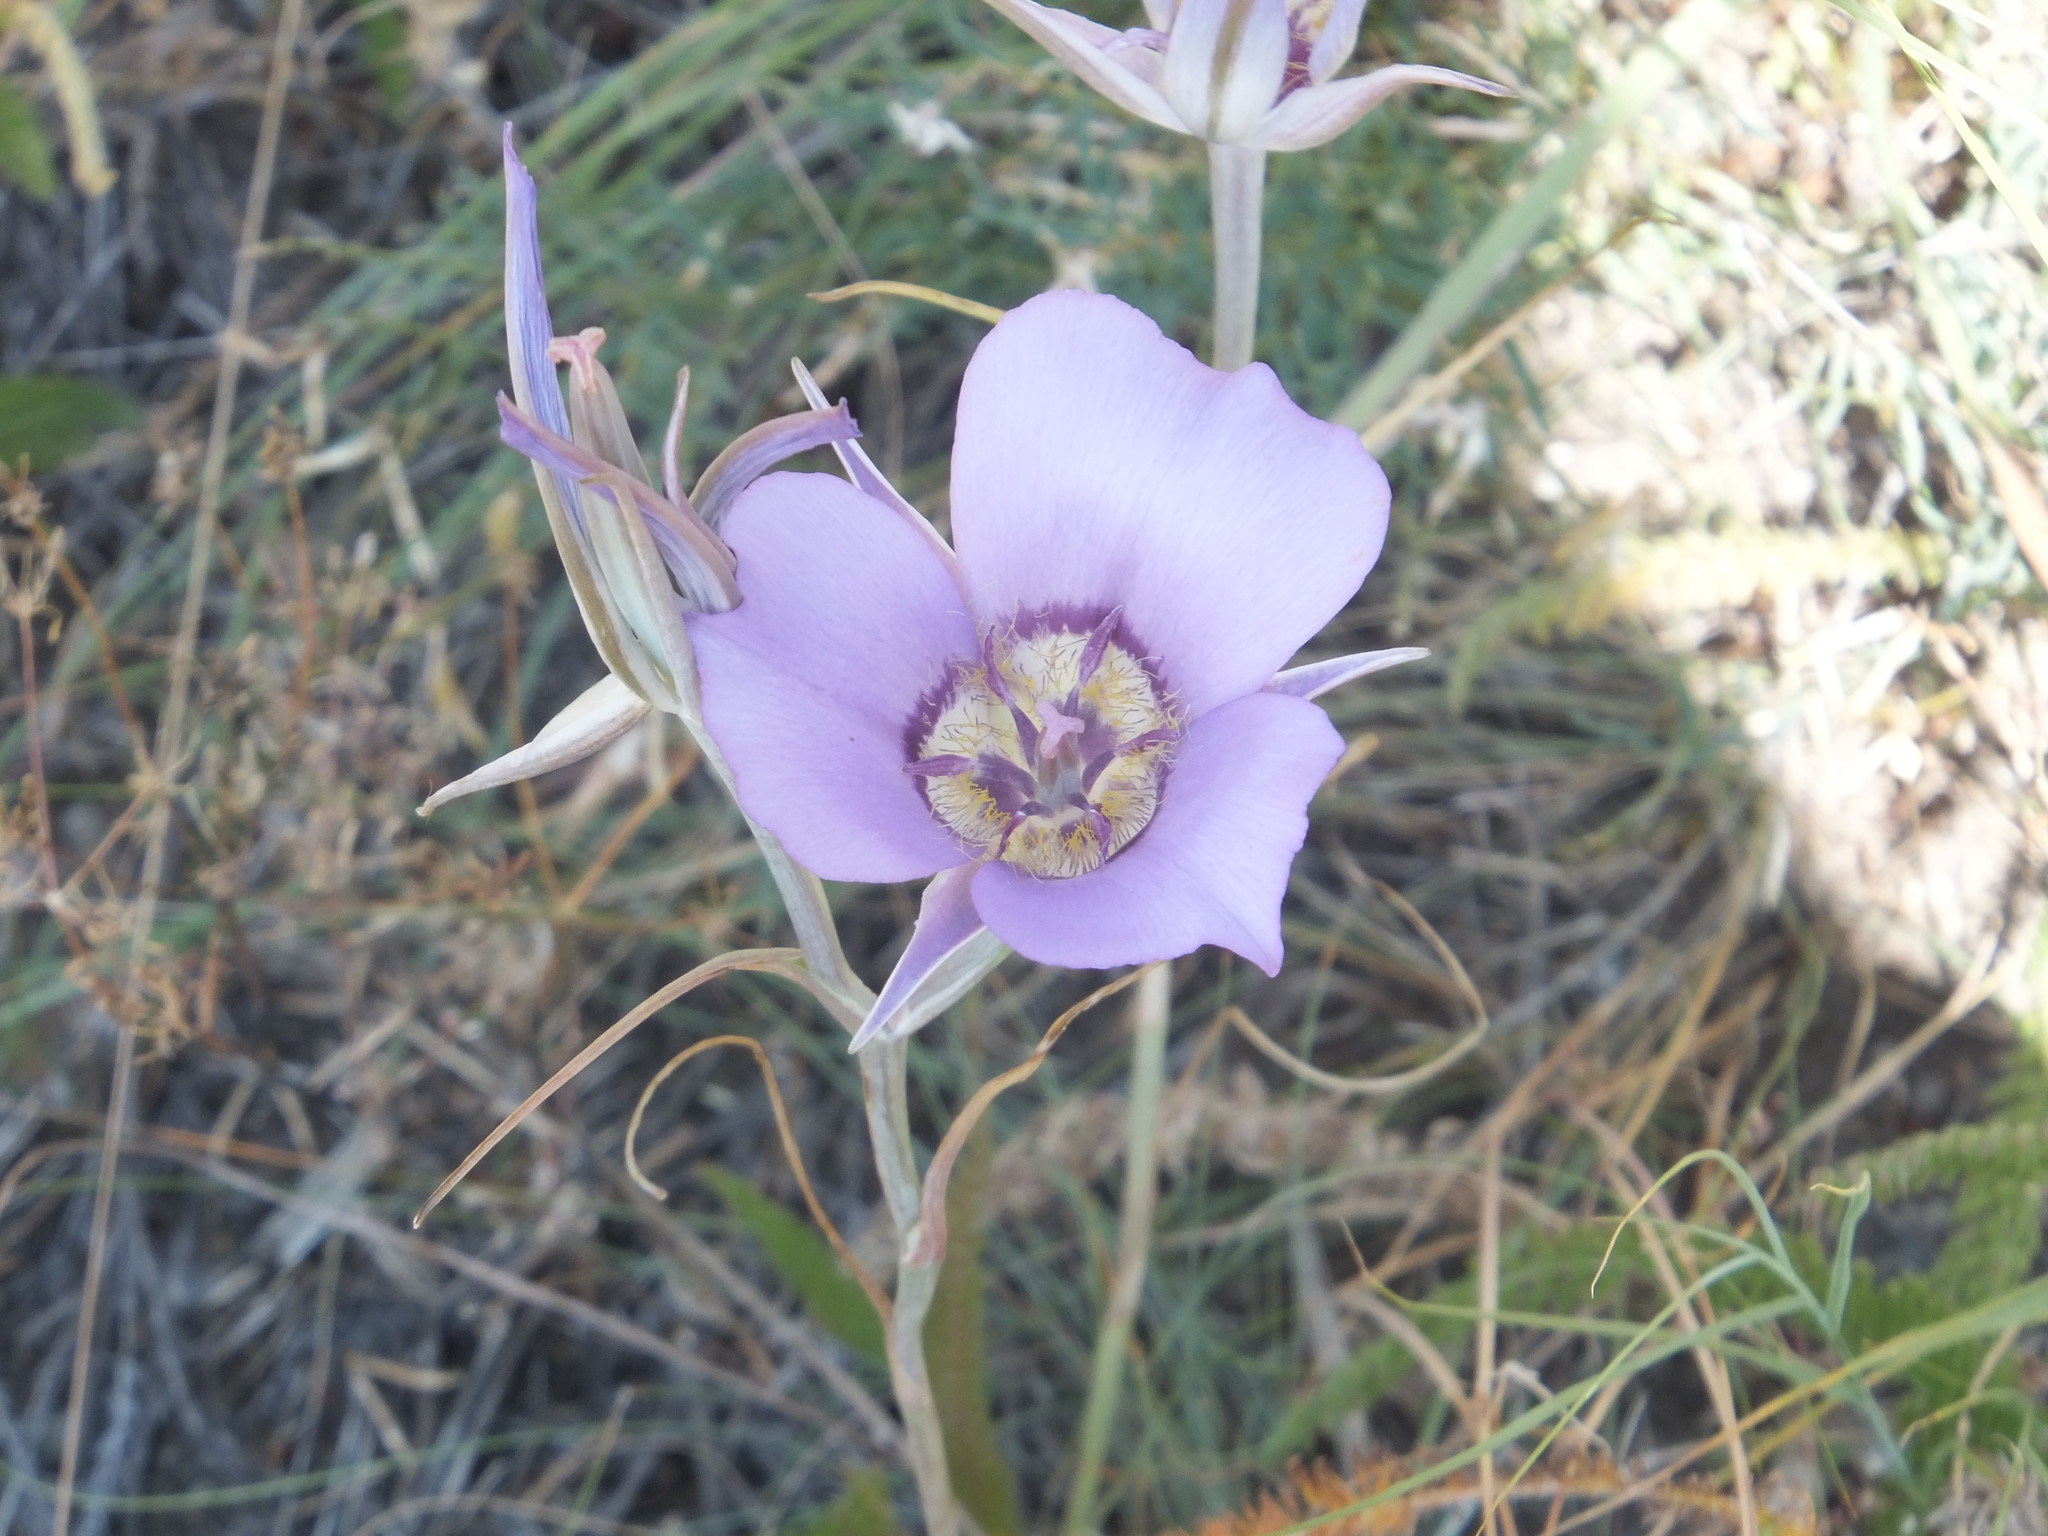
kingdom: Plantae
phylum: Tracheophyta
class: Liliopsida
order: Liliales
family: Liliaceae
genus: Calochortus
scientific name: Calochortus macrocarpus
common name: Green-band mariposa lily
